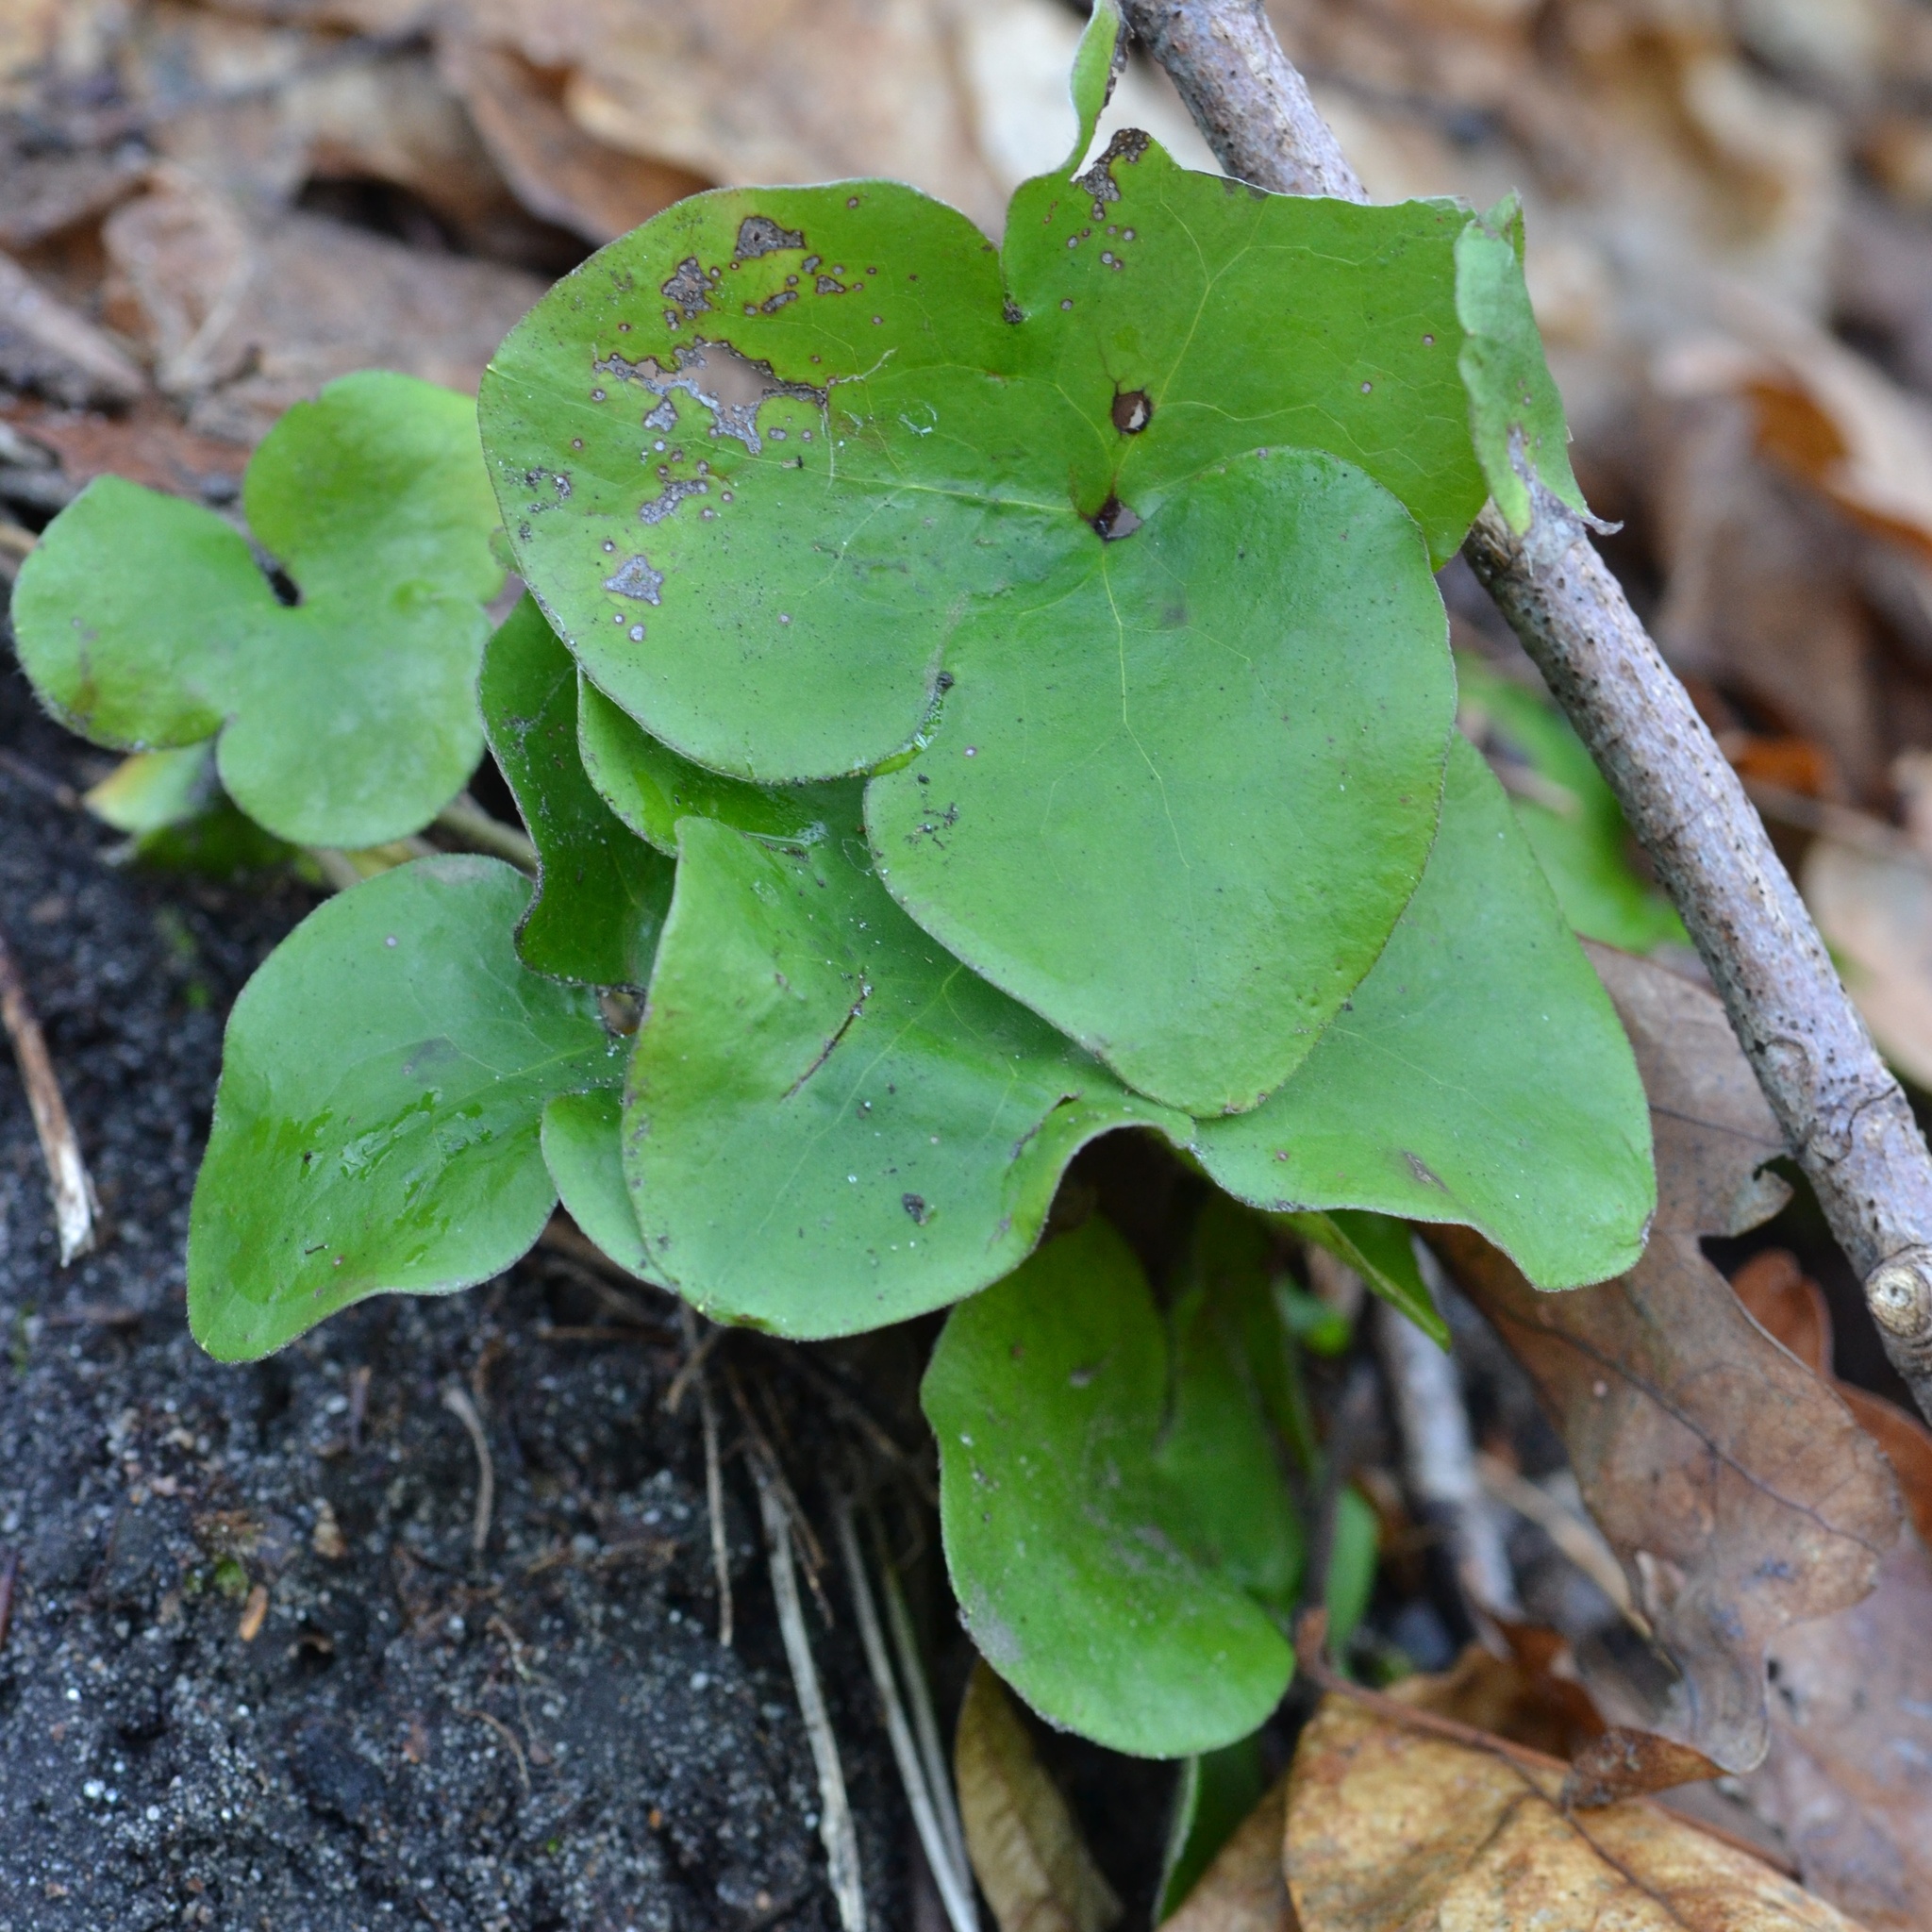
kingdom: Plantae
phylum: Tracheophyta
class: Magnoliopsida
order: Ranunculales
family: Ranunculaceae
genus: Hepatica
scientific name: Hepatica nobilis
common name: Liverleaf
